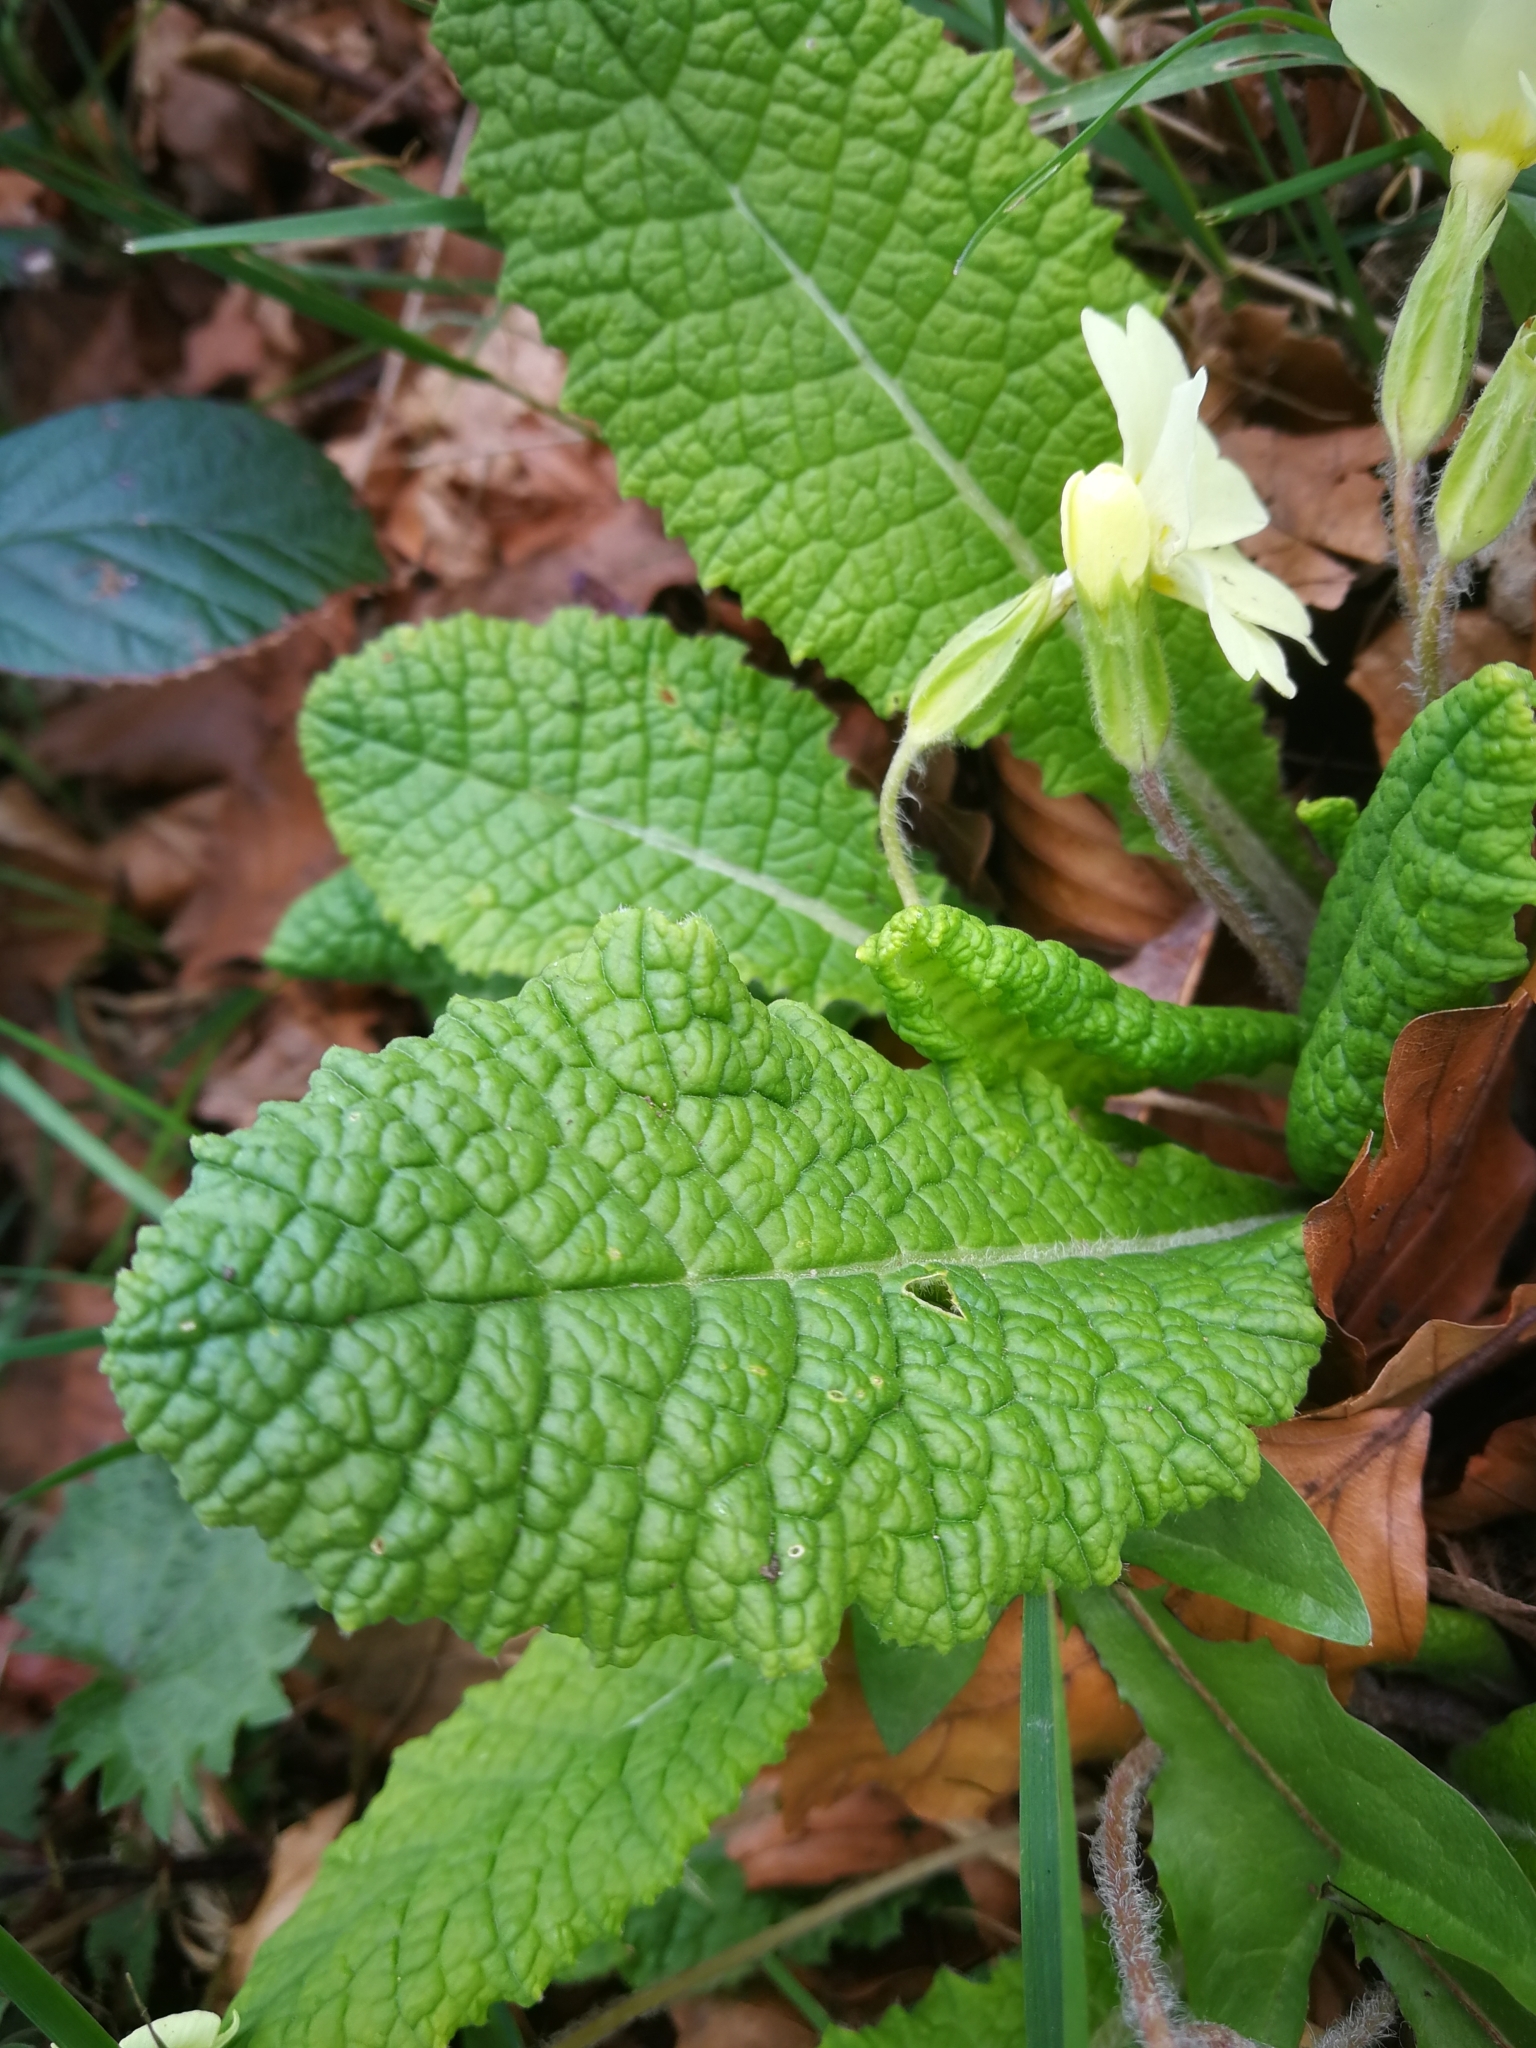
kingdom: Plantae
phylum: Tracheophyta
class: Magnoliopsida
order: Ericales
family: Primulaceae
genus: Primula
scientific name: Primula vulgaris
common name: Primrose
